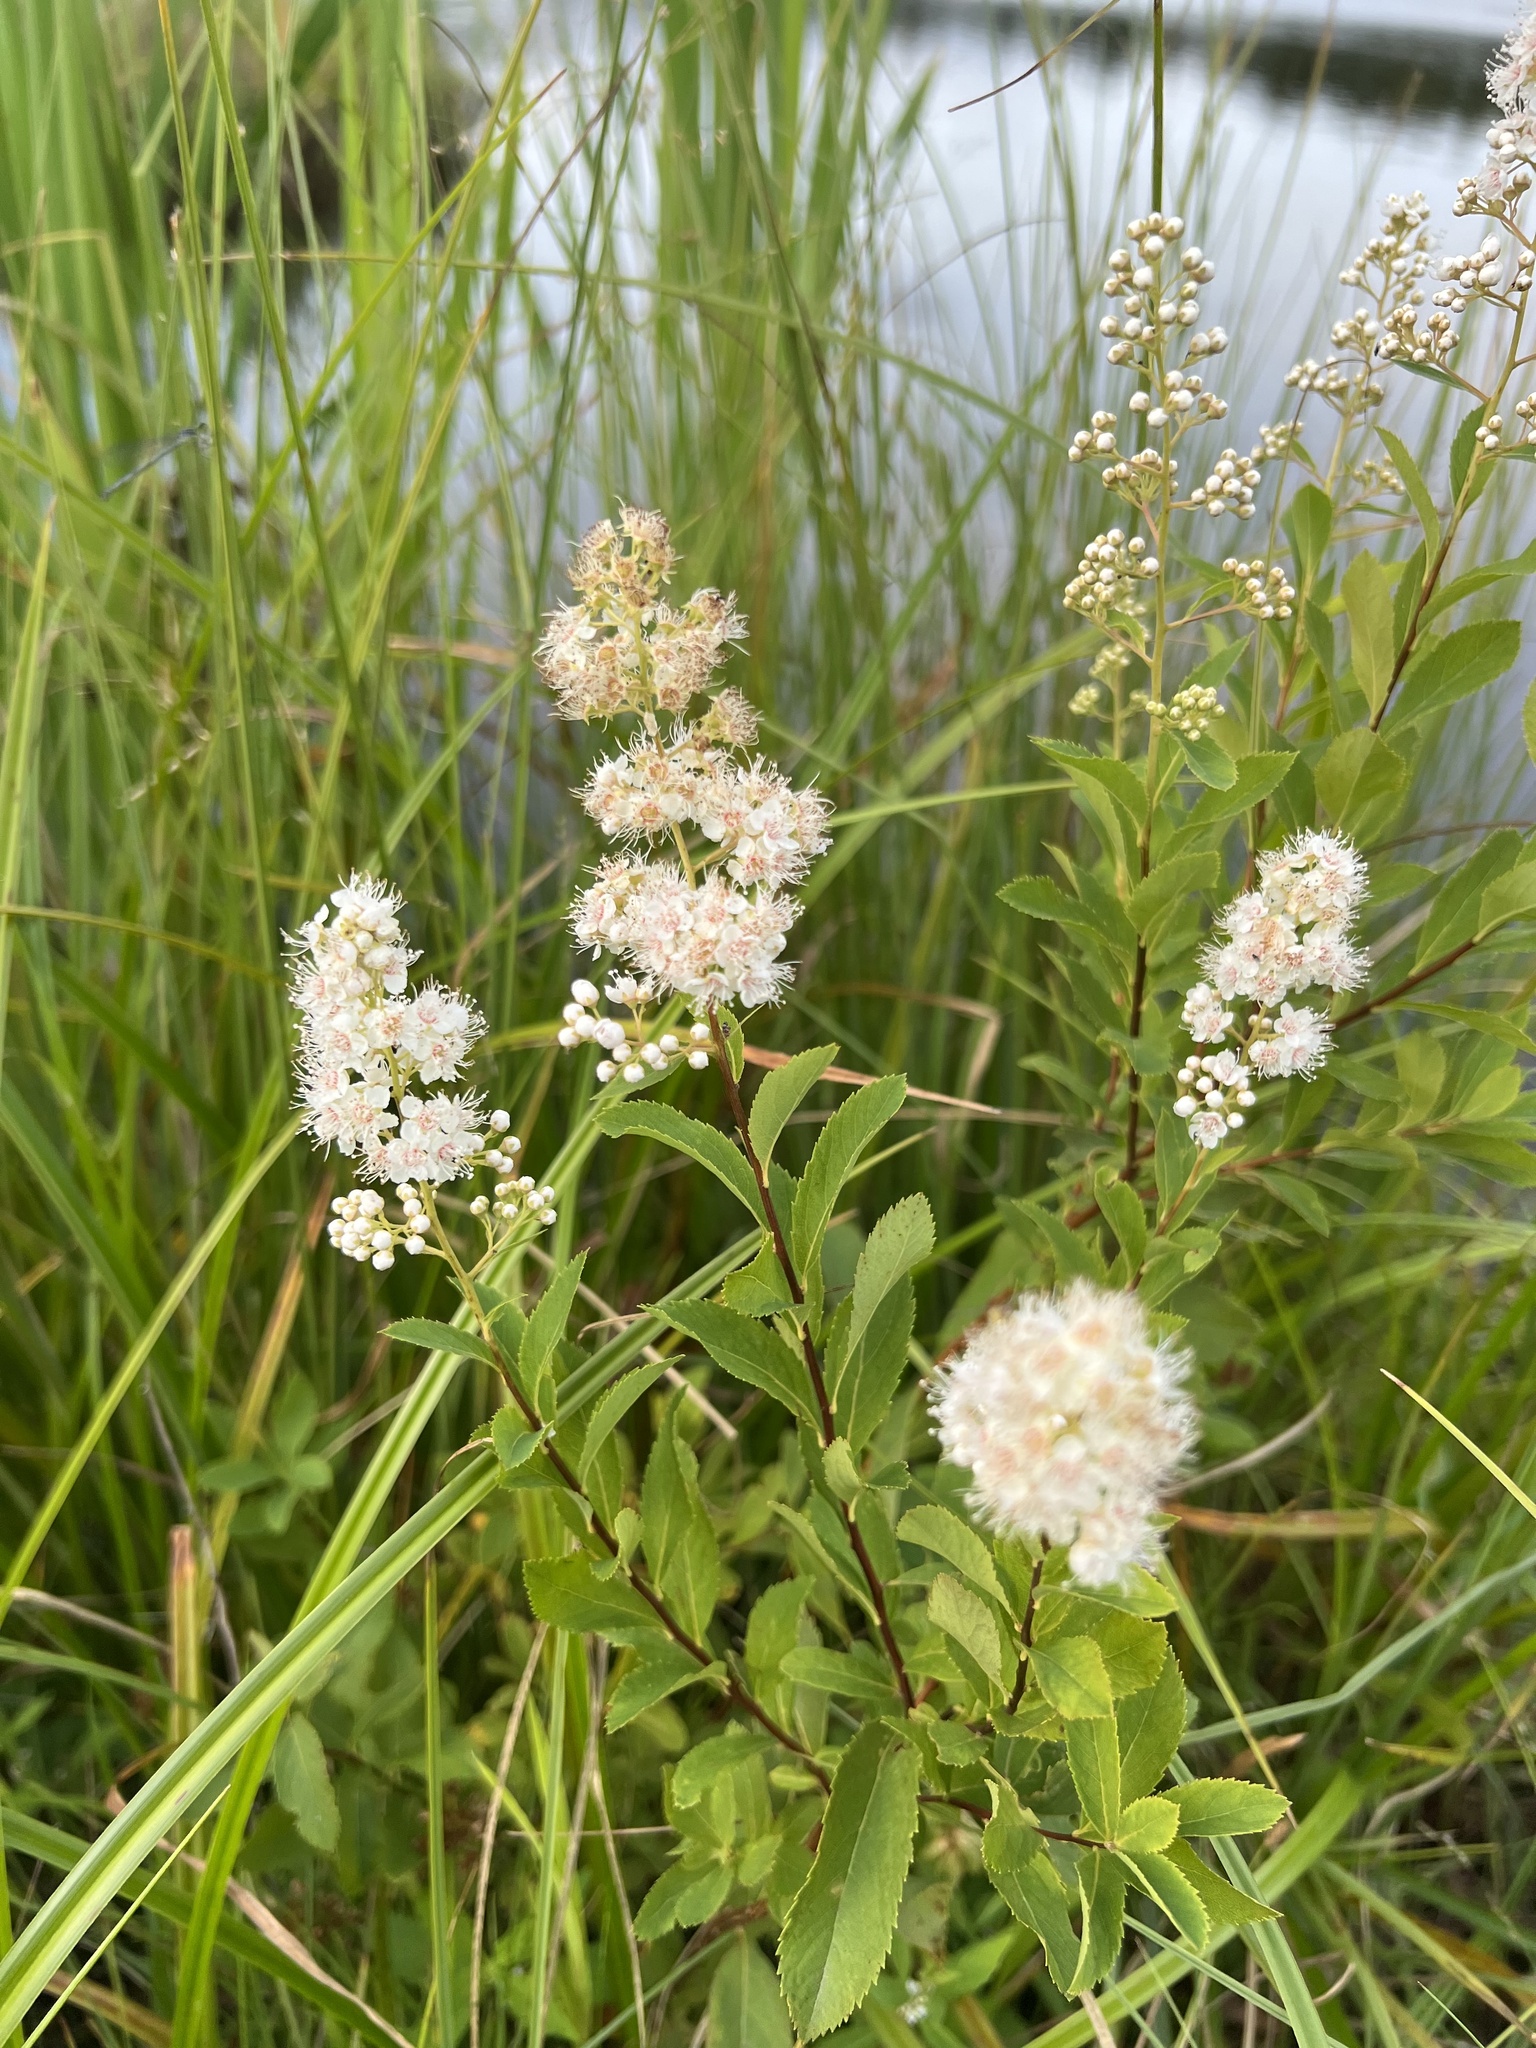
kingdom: Plantae
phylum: Tracheophyta
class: Magnoliopsida
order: Rosales
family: Rosaceae
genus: Spiraea
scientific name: Spiraea alba
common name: Pale bridewort
